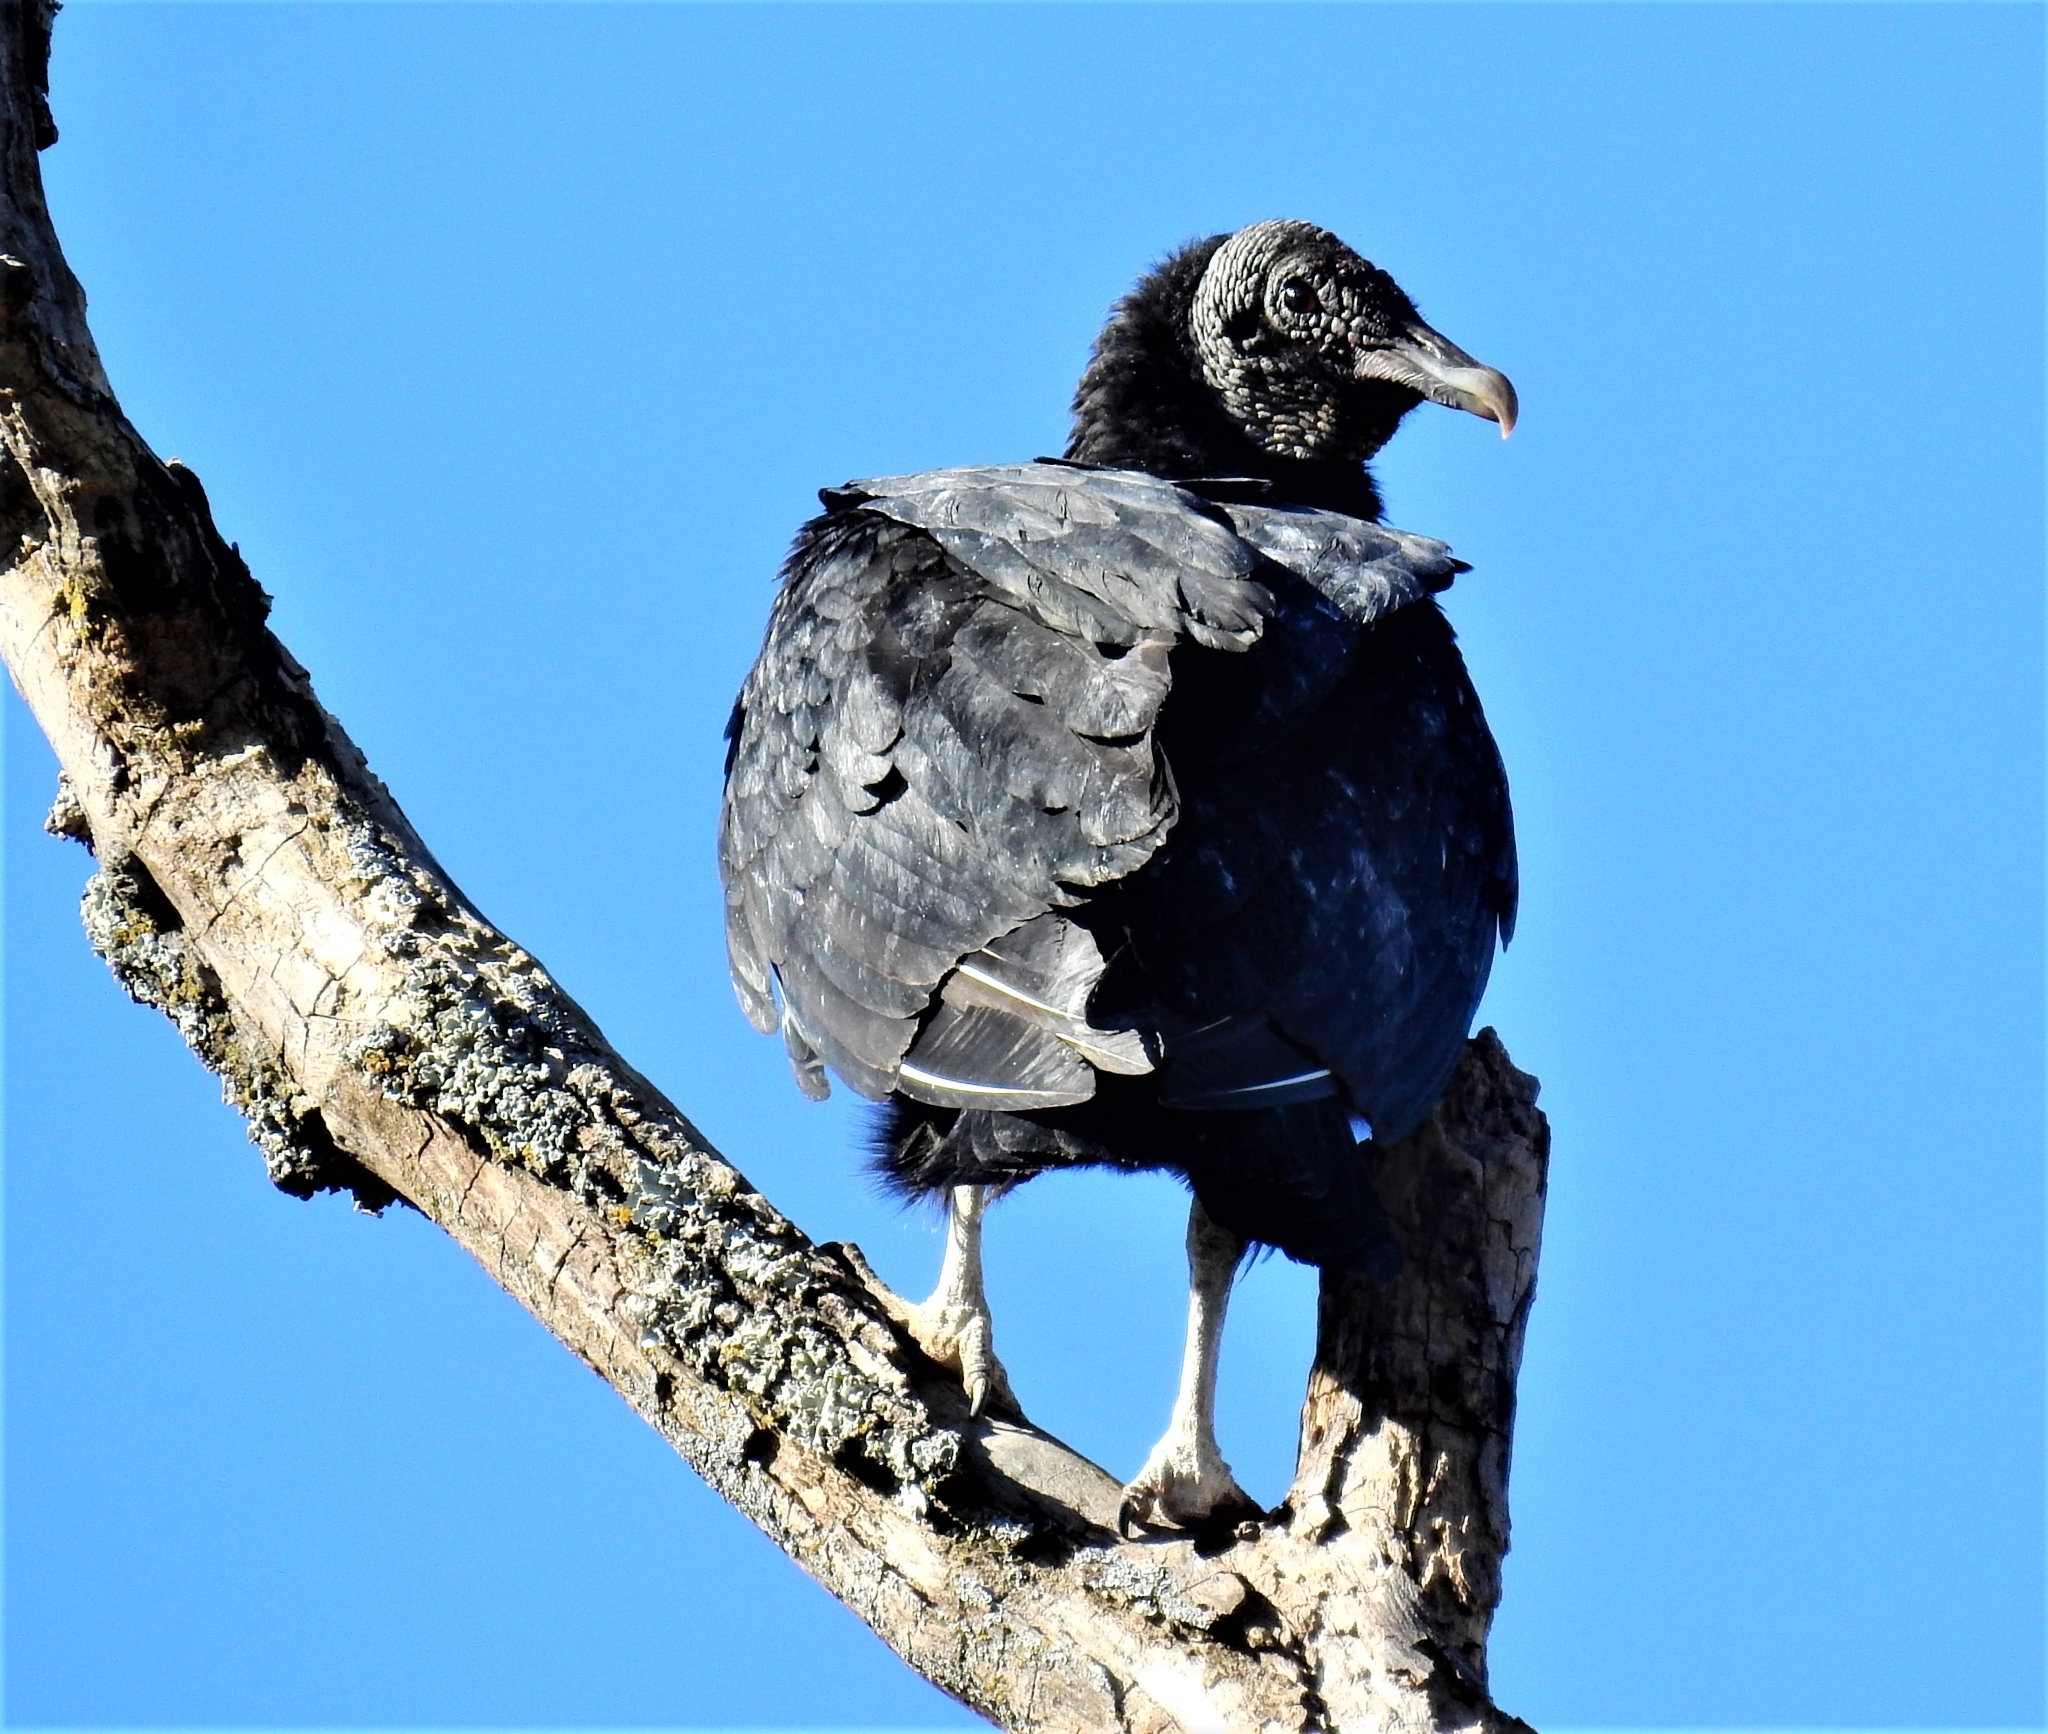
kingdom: Animalia
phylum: Chordata
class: Aves
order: Accipitriformes
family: Cathartidae
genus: Coragyps
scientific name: Coragyps atratus
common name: Black vulture
